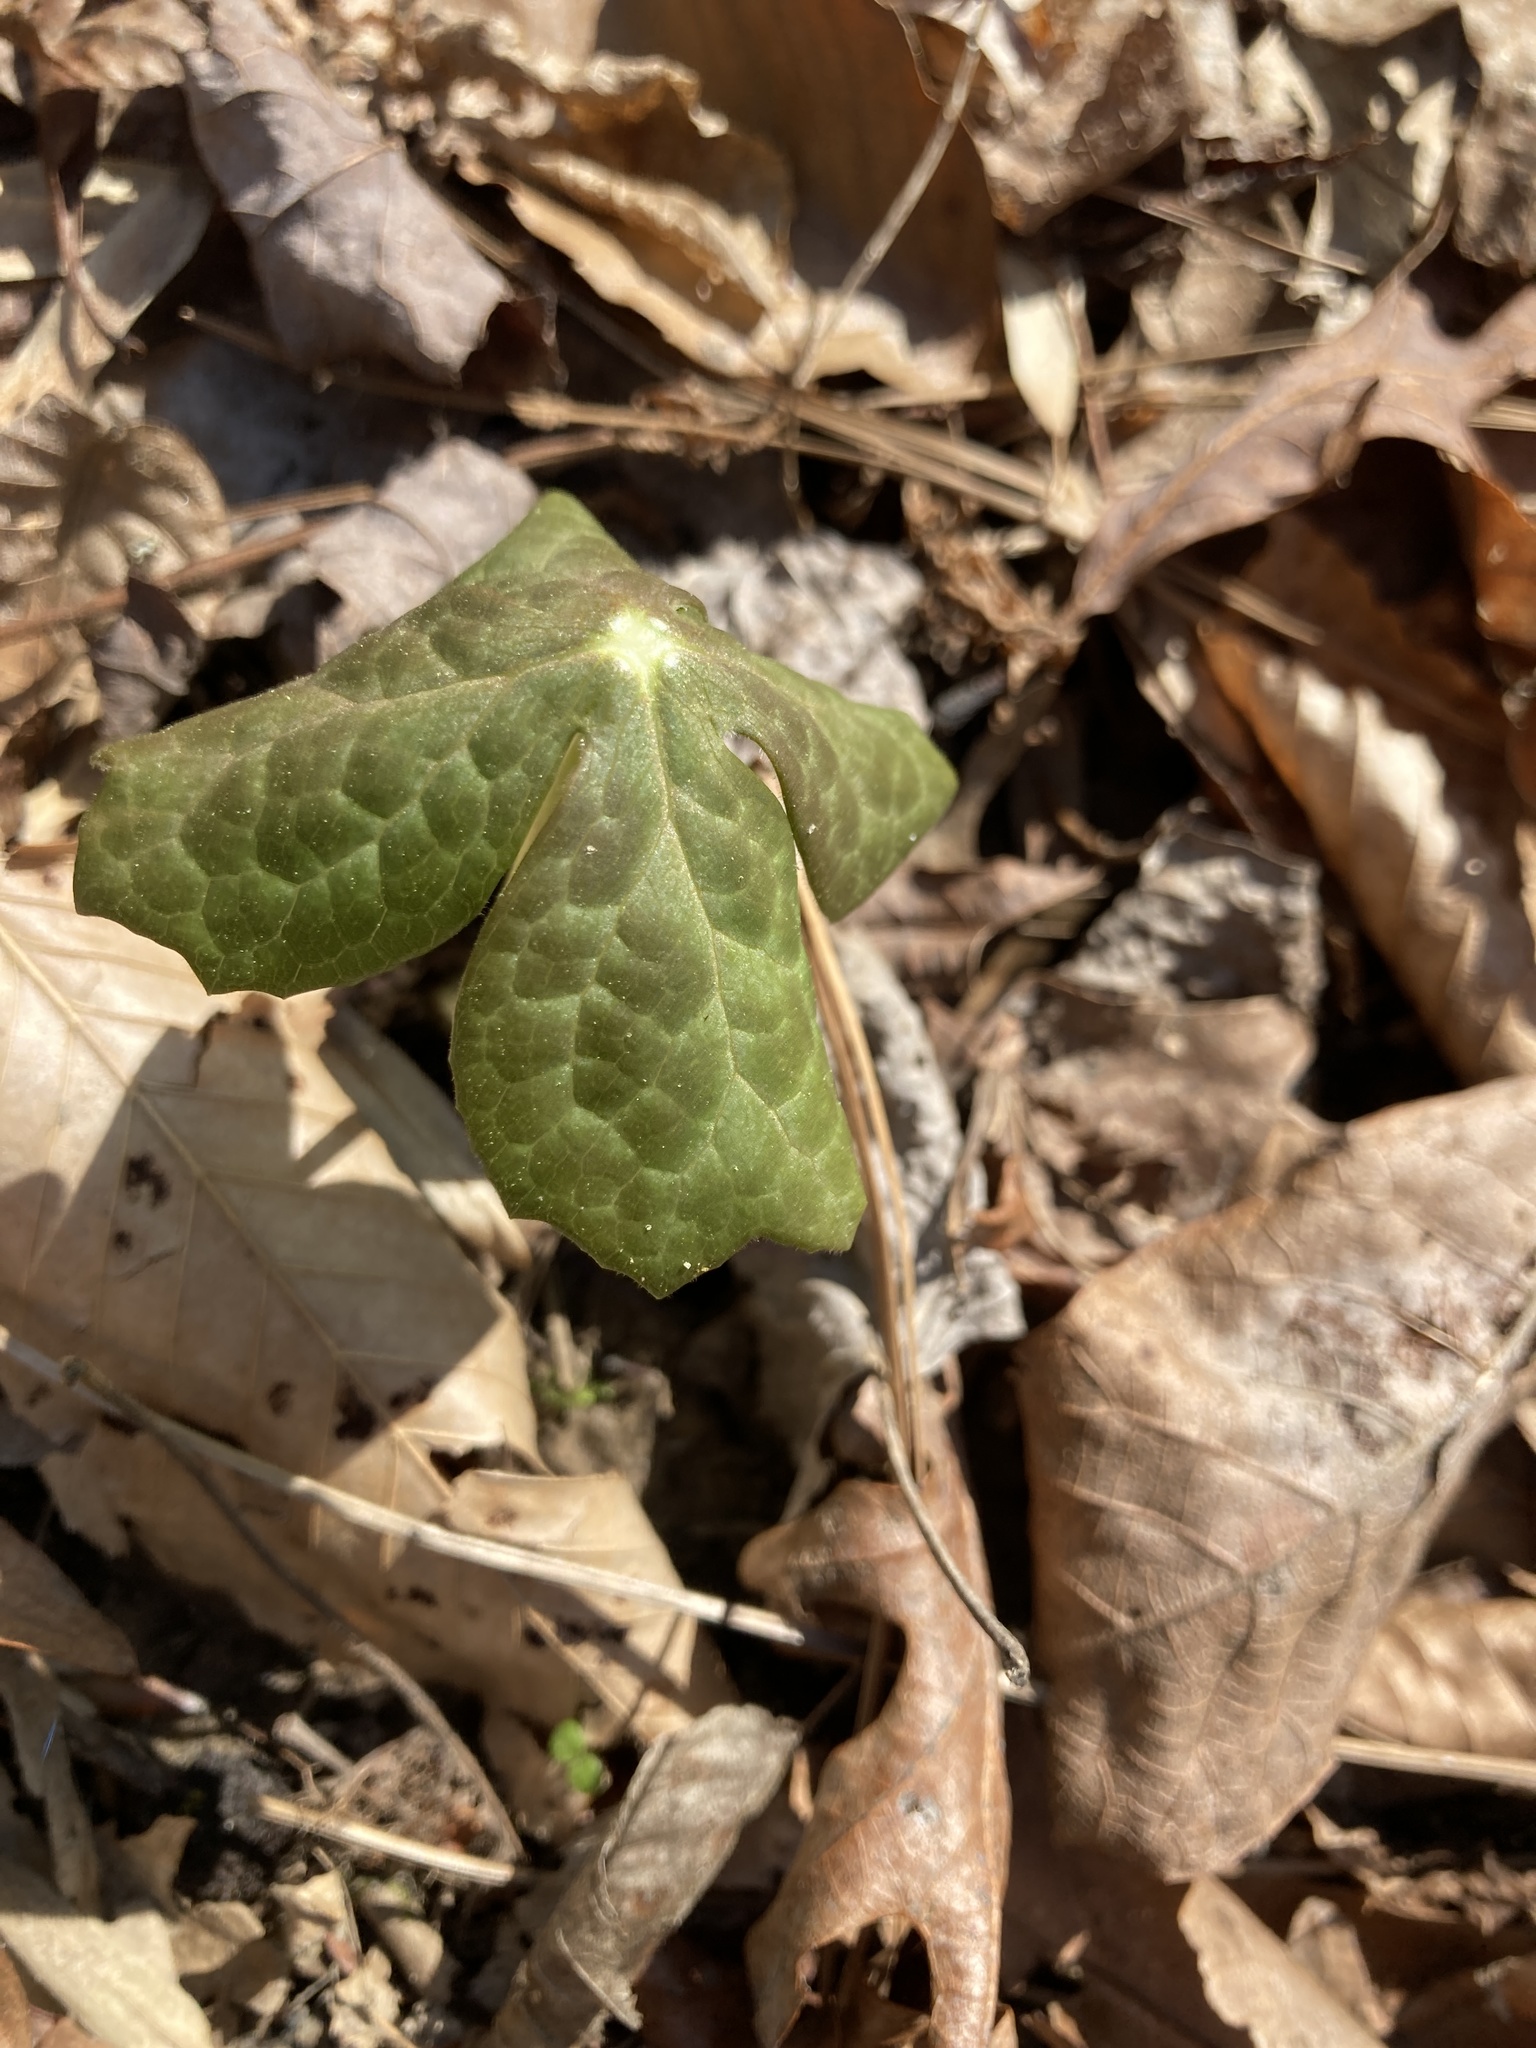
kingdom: Plantae
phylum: Tracheophyta
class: Magnoliopsida
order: Ranunculales
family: Berberidaceae
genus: Podophyllum
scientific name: Podophyllum peltatum
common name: Wild mandrake
